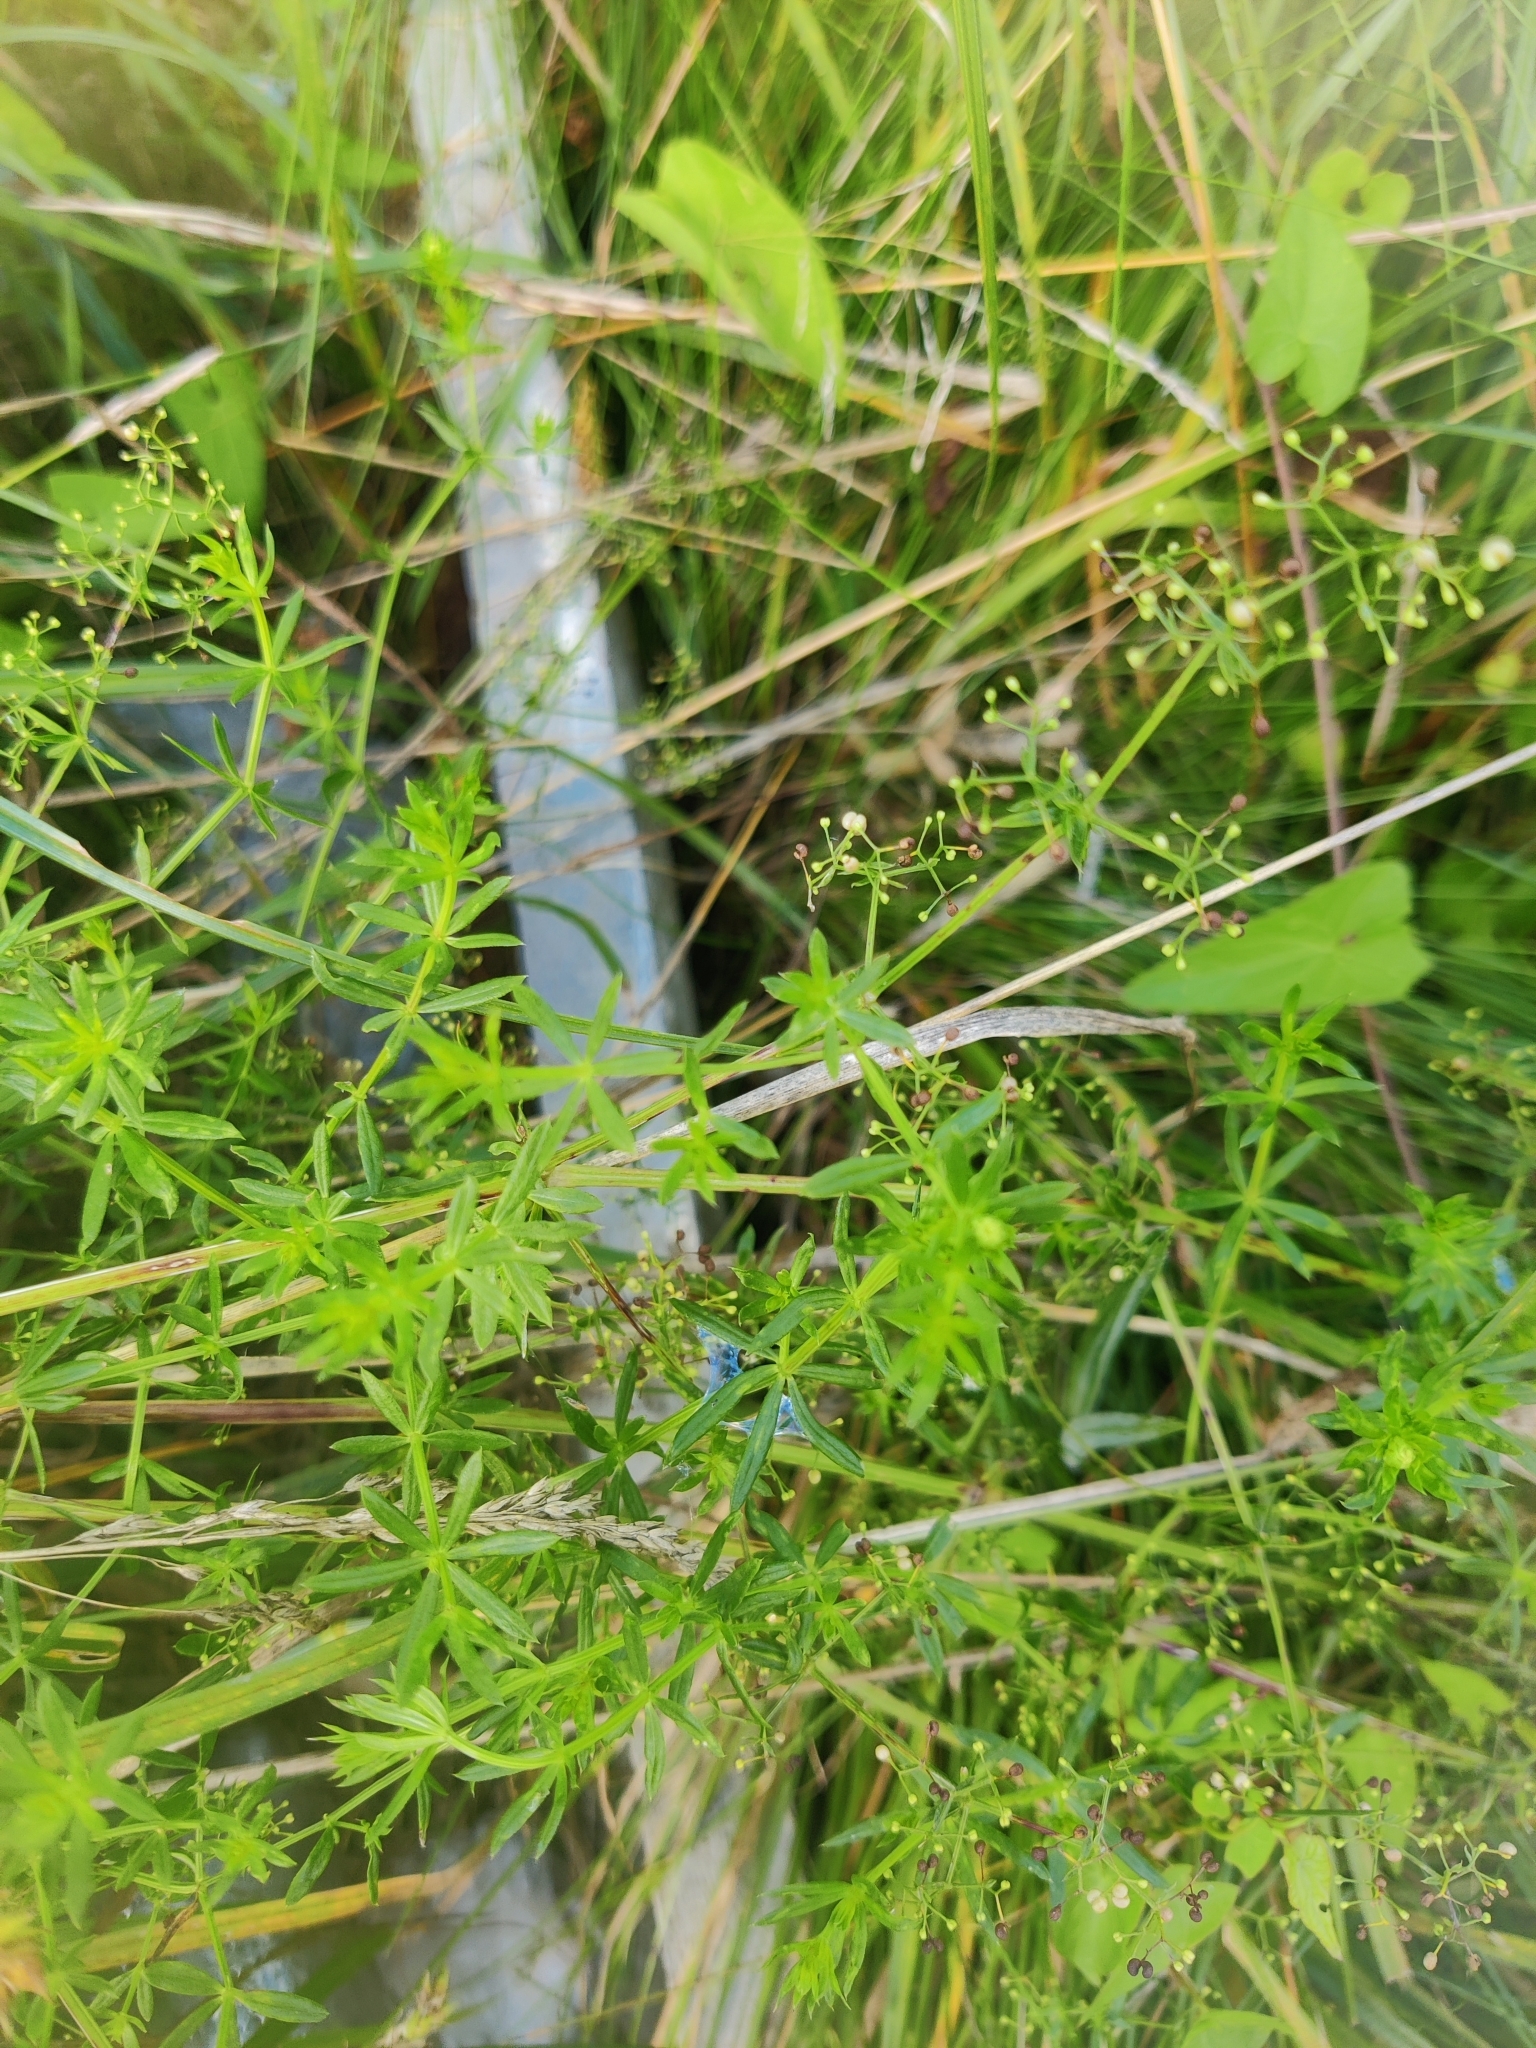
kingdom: Plantae
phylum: Tracheophyta
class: Magnoliopsida
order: Gentianales
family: Rubiaceae
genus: Galium
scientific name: Galium mollugo
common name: Hedge bedstraw
